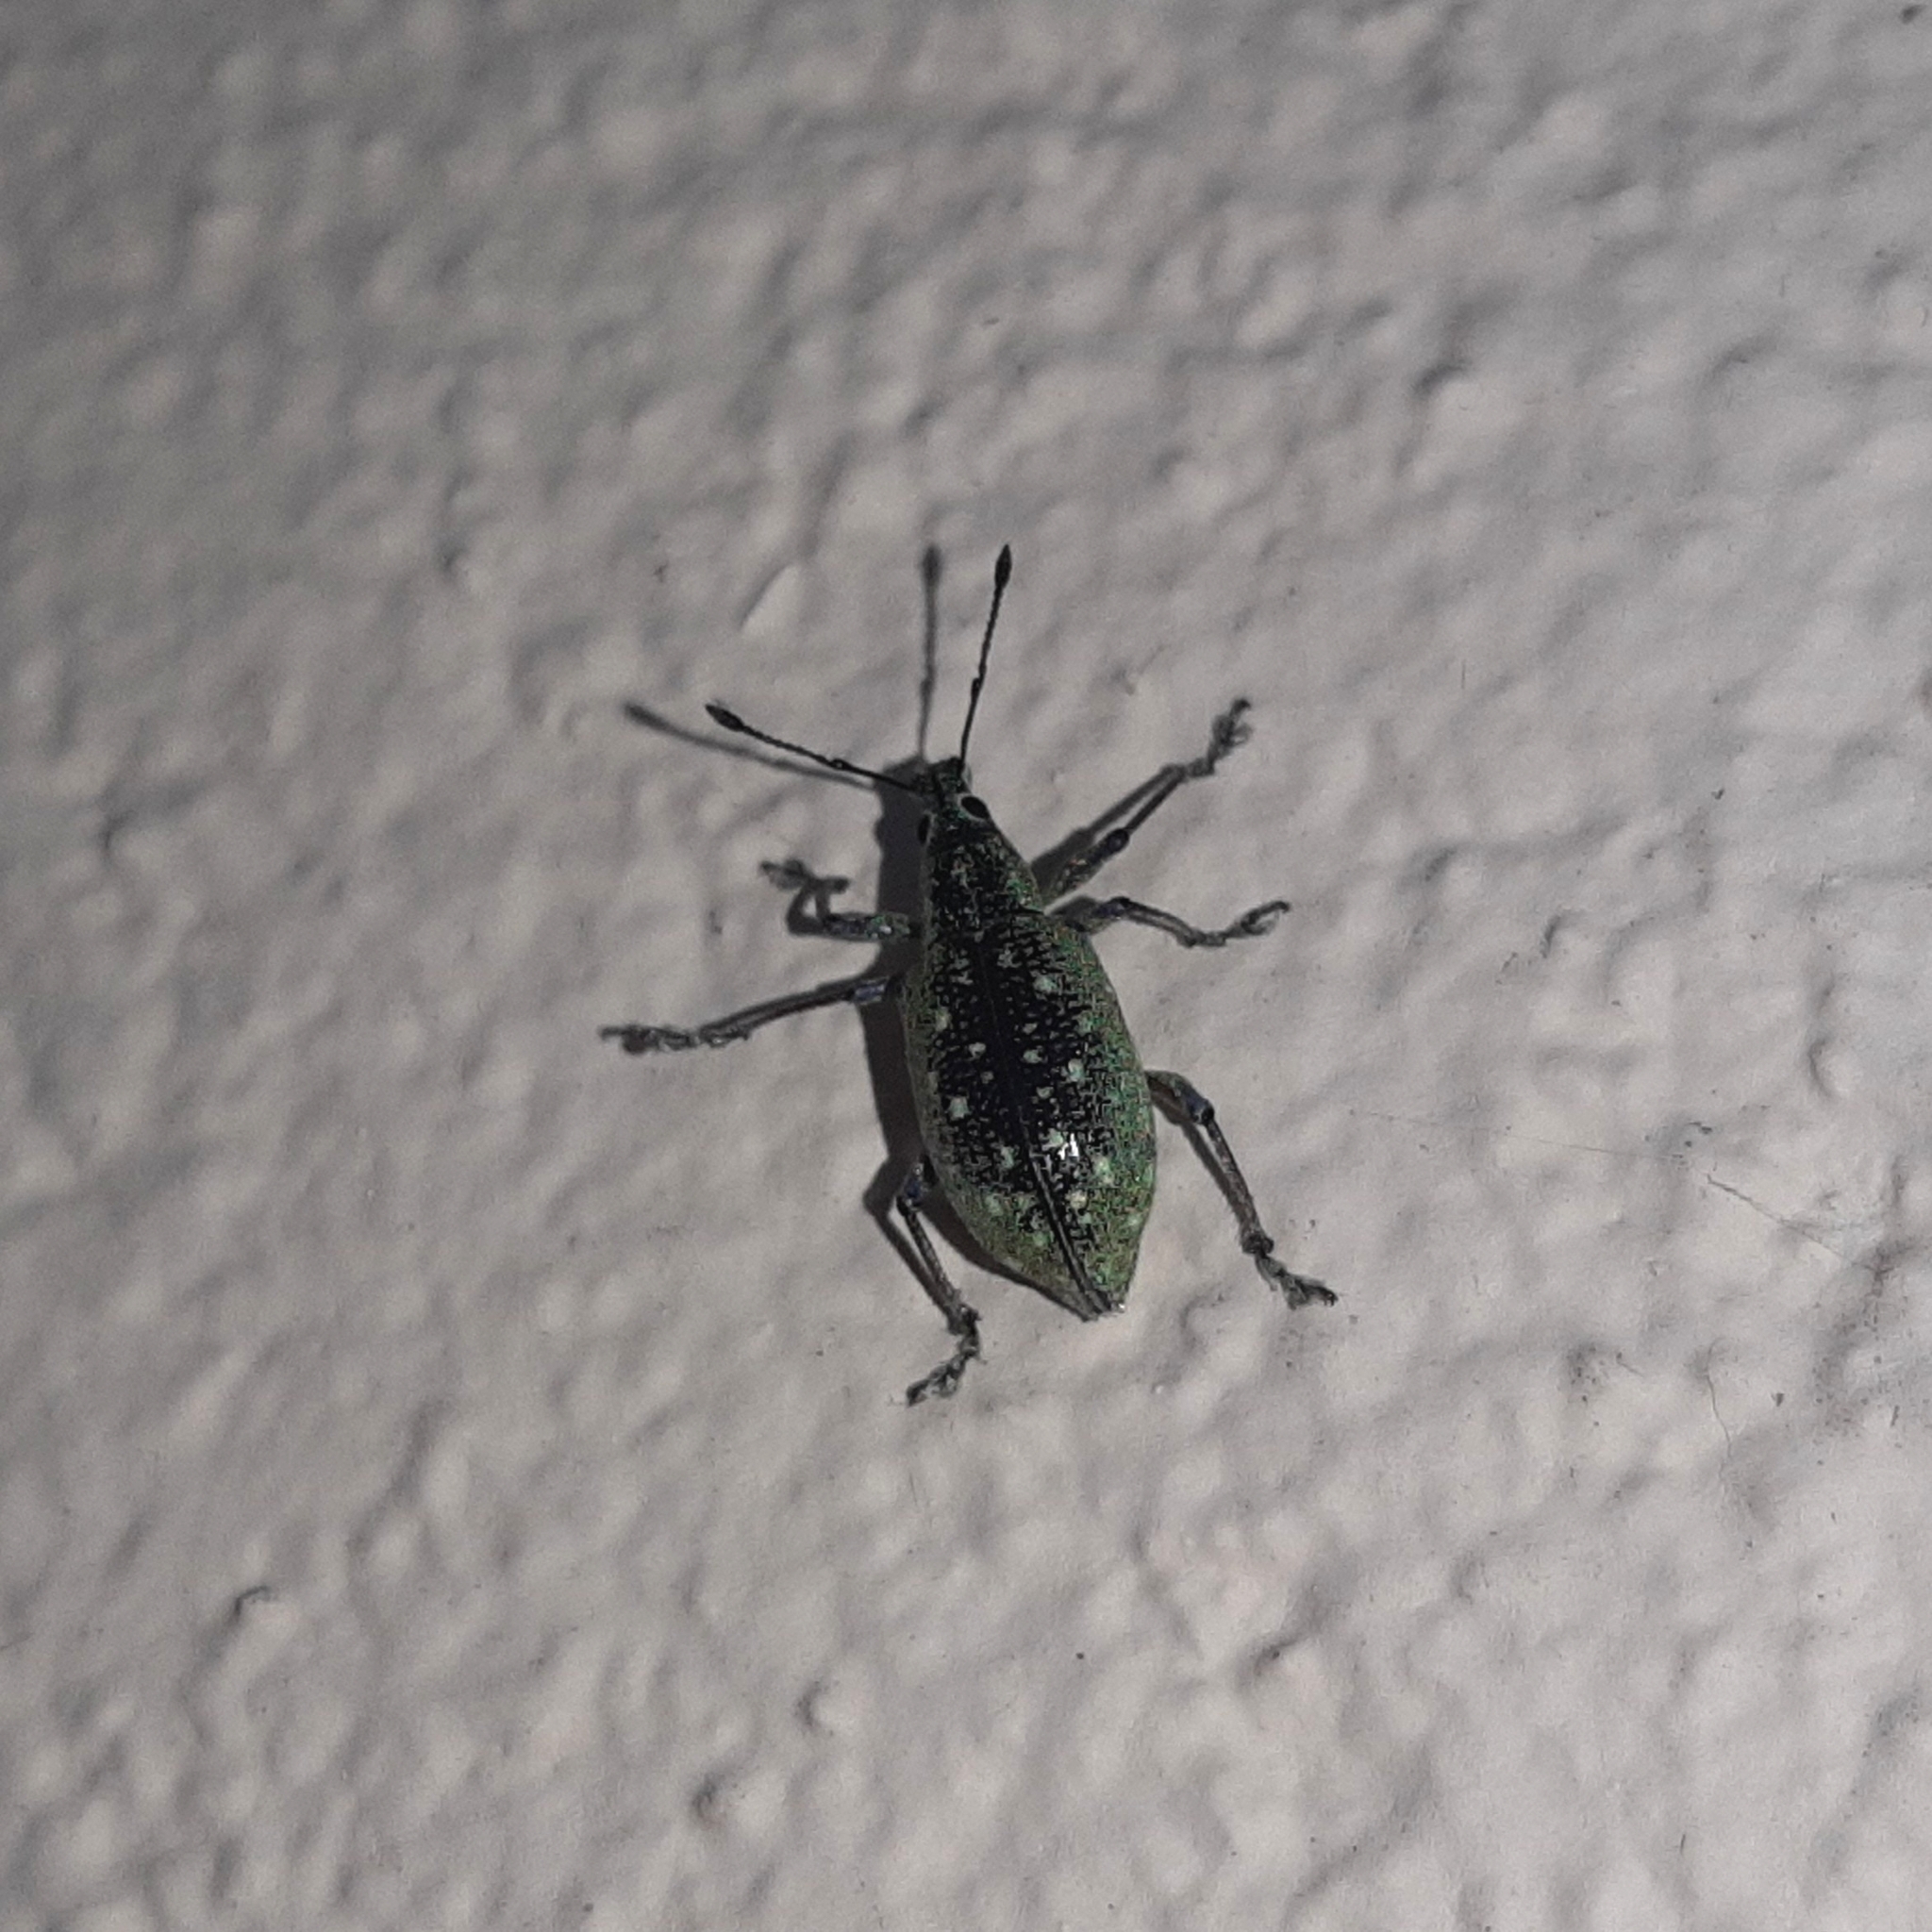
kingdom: Animalia
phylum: Arthropoda
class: Insecta
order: Coleoptera
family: Curculionidae
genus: Exophthalmus
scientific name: Exophthalmus jekelianus
